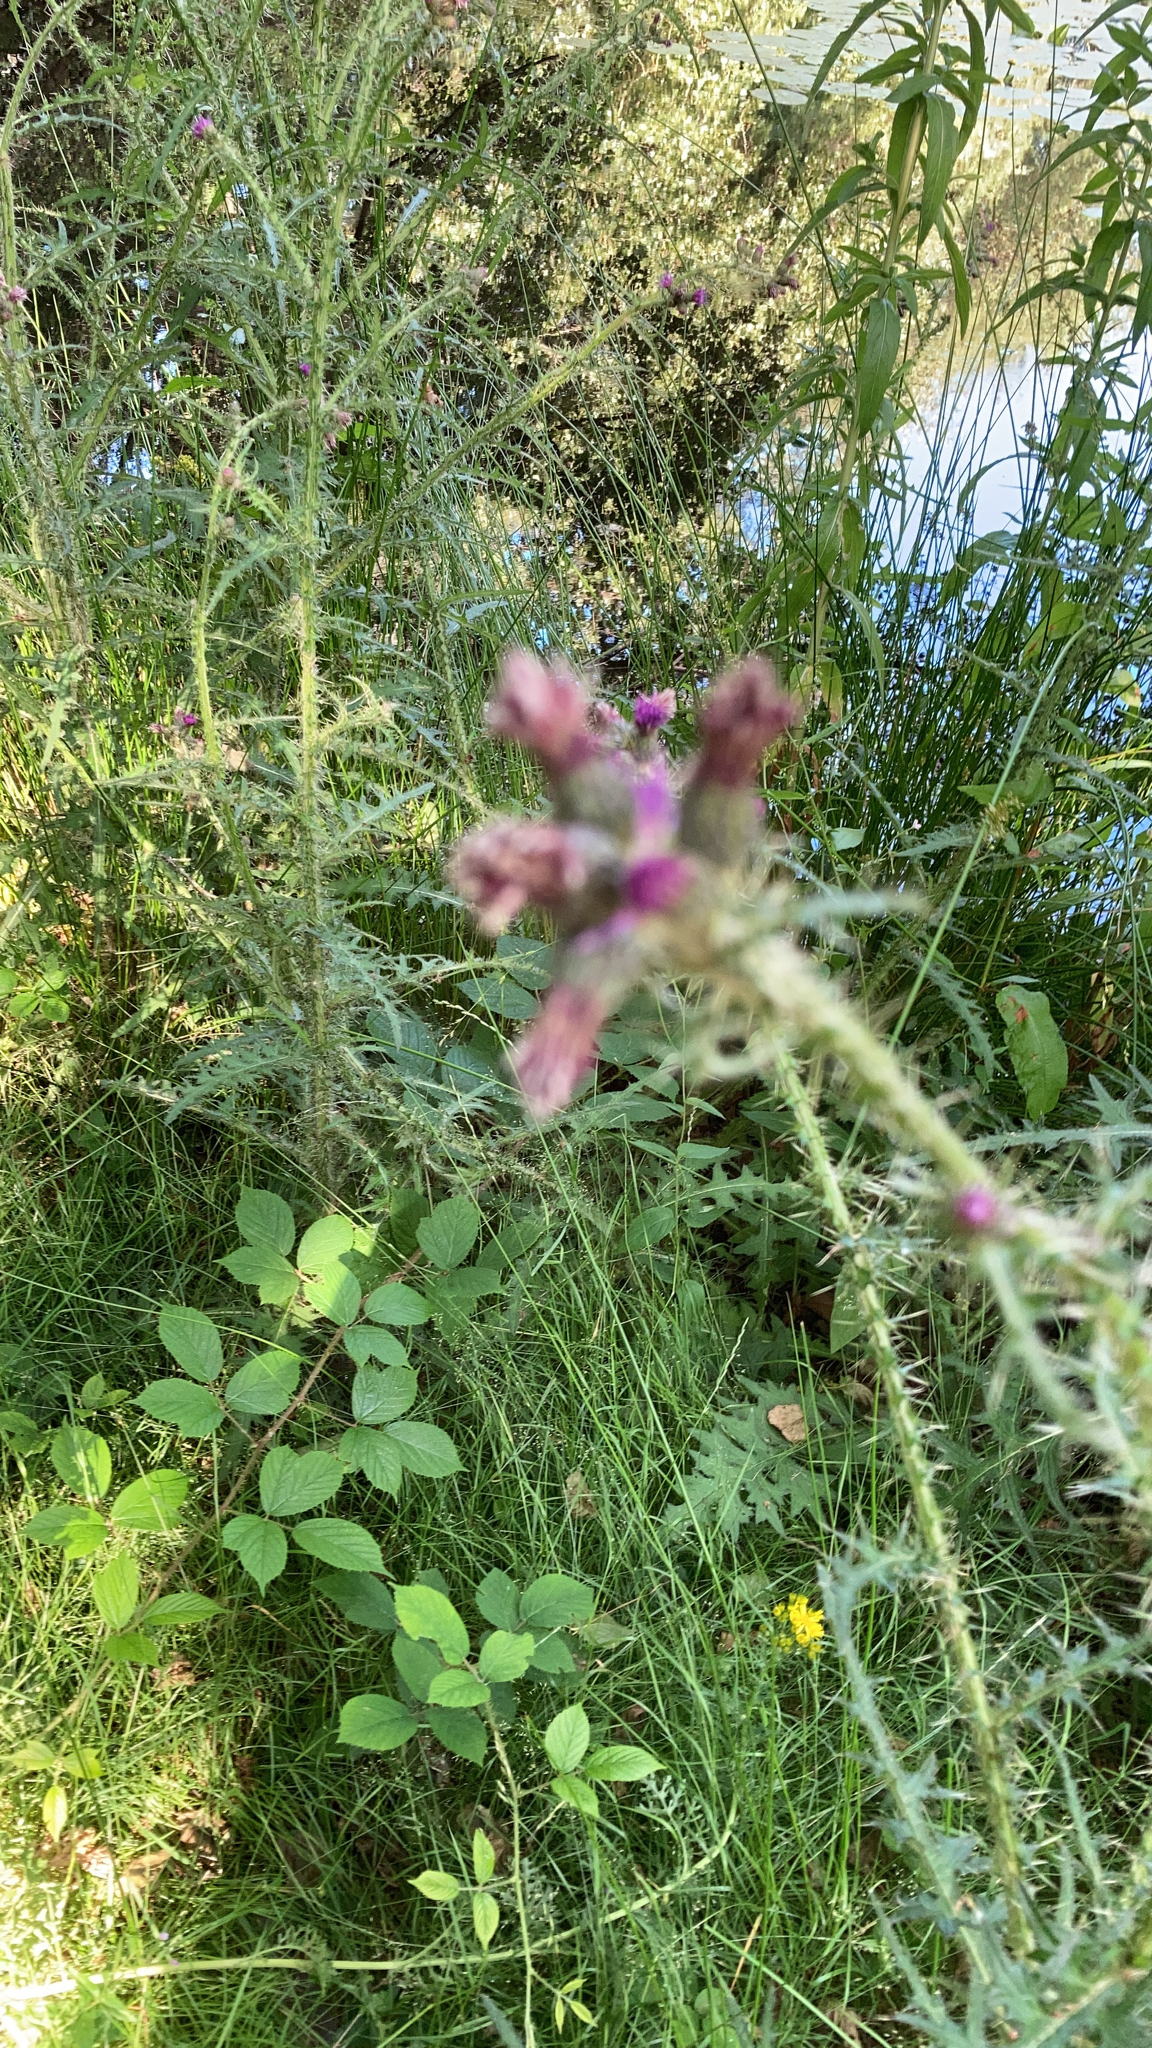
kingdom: Plantae
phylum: Tracheophyta
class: Magnoliopsida
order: Asterales
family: Asteraceae
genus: Cirsium
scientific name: Cirsium palustre
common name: Marsh thistle
